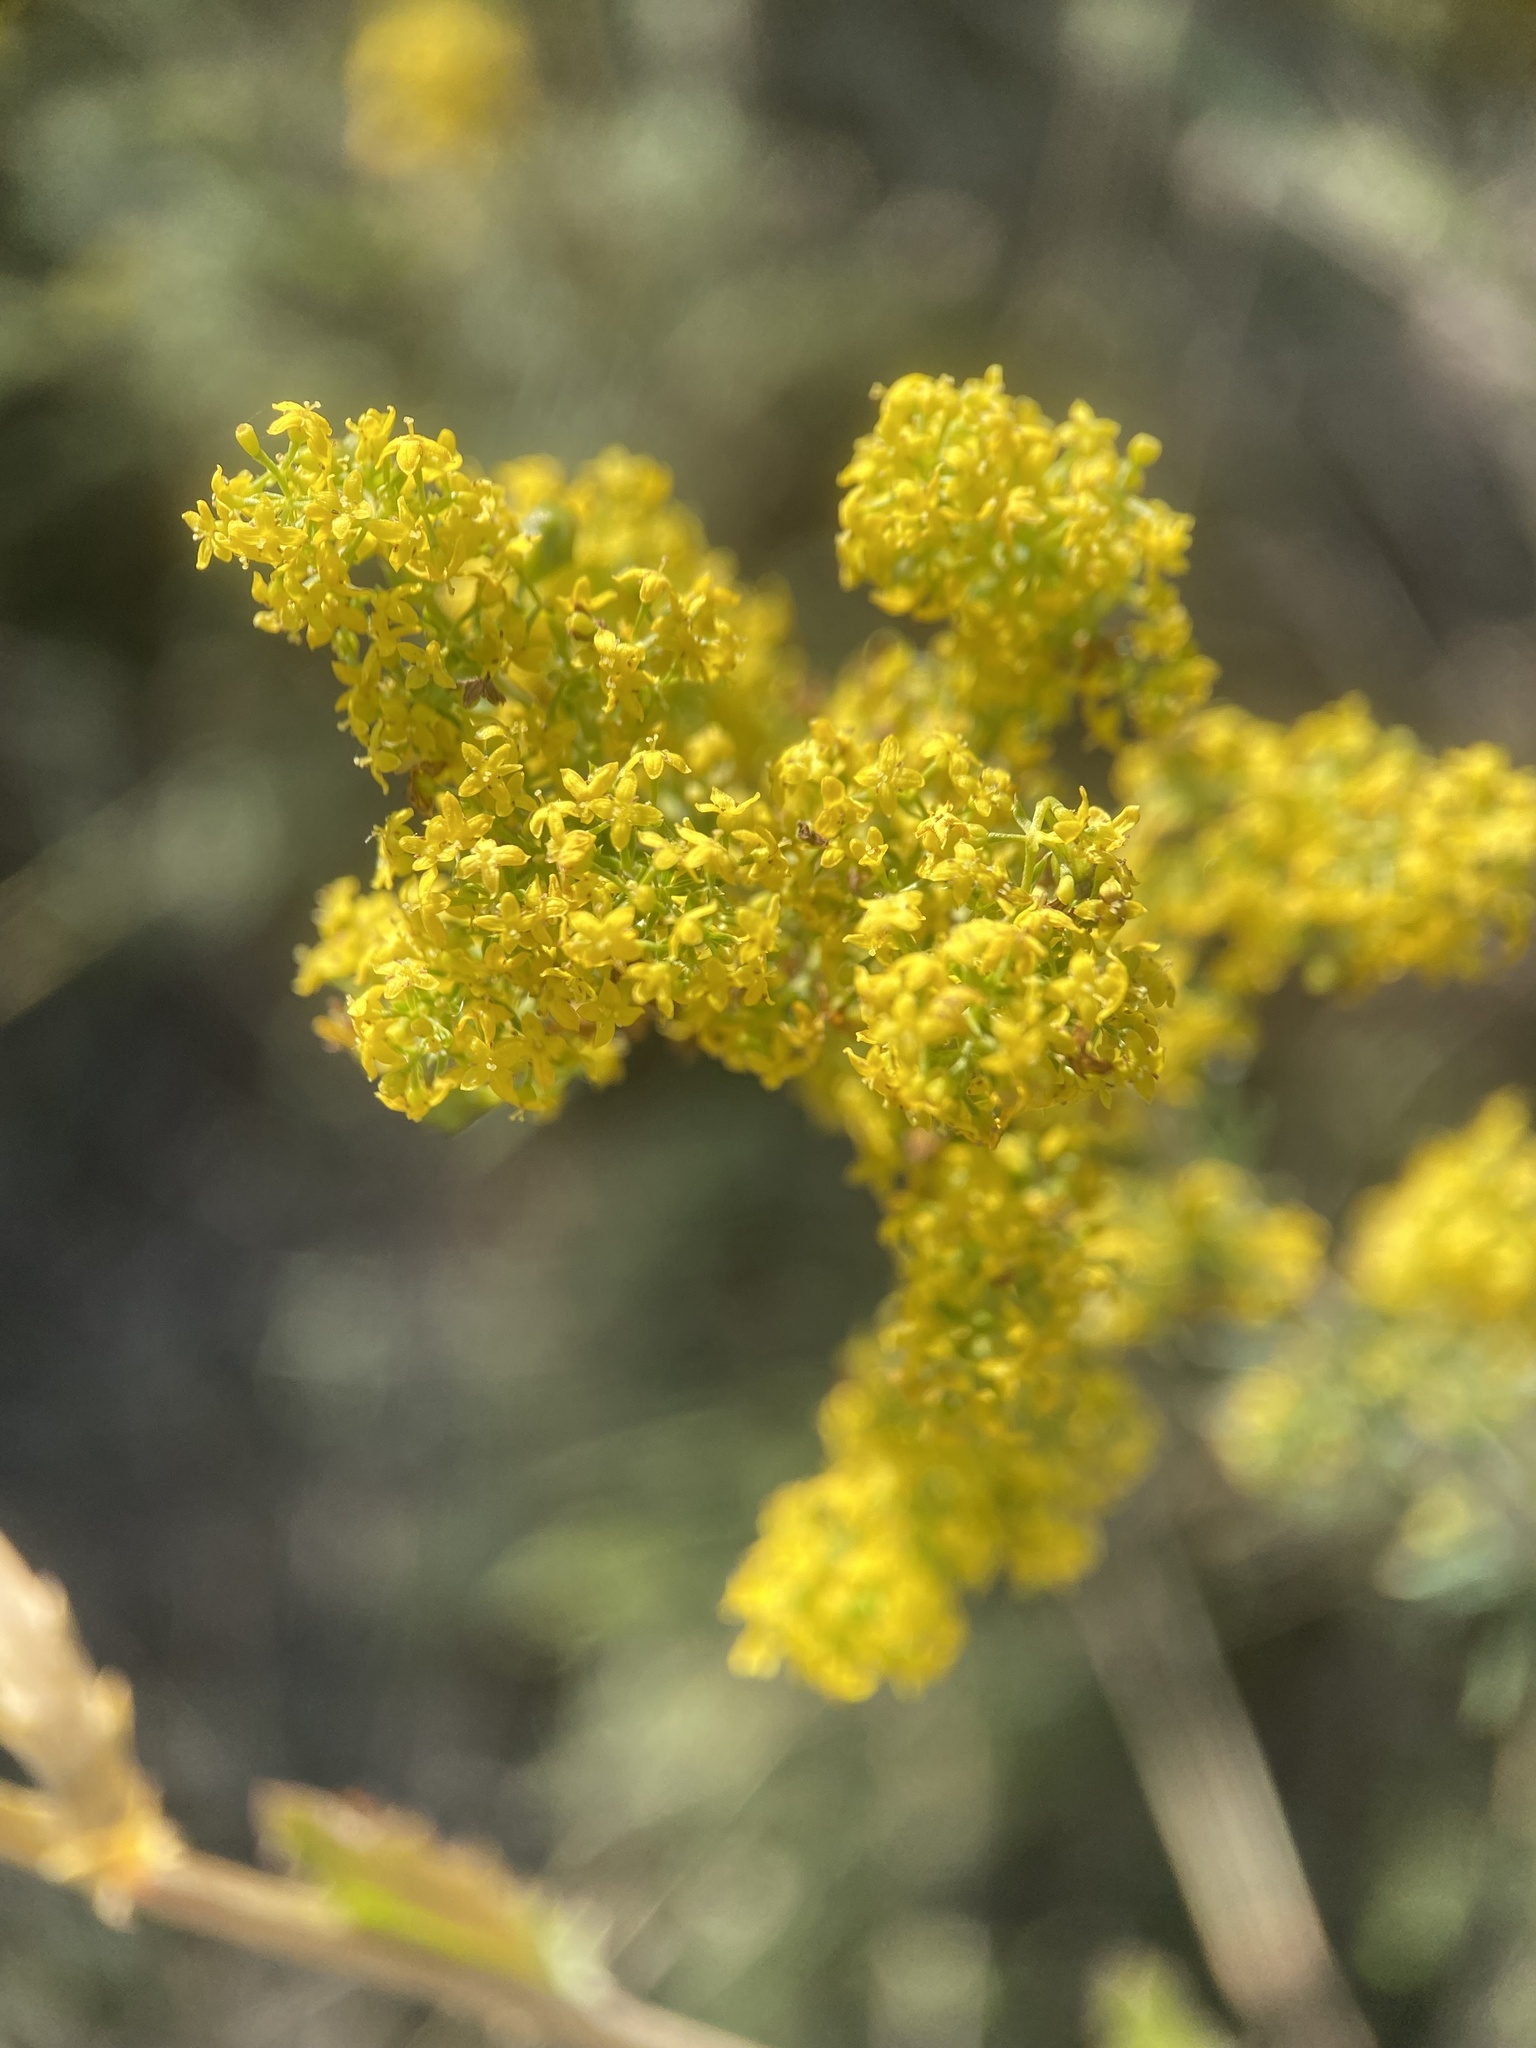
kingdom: Plantae
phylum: Tracheophyta
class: Magnoliopsida
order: Gentianales
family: Rubiaceae
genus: Galium
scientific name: Galium verum
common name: Lady's bedstraw
